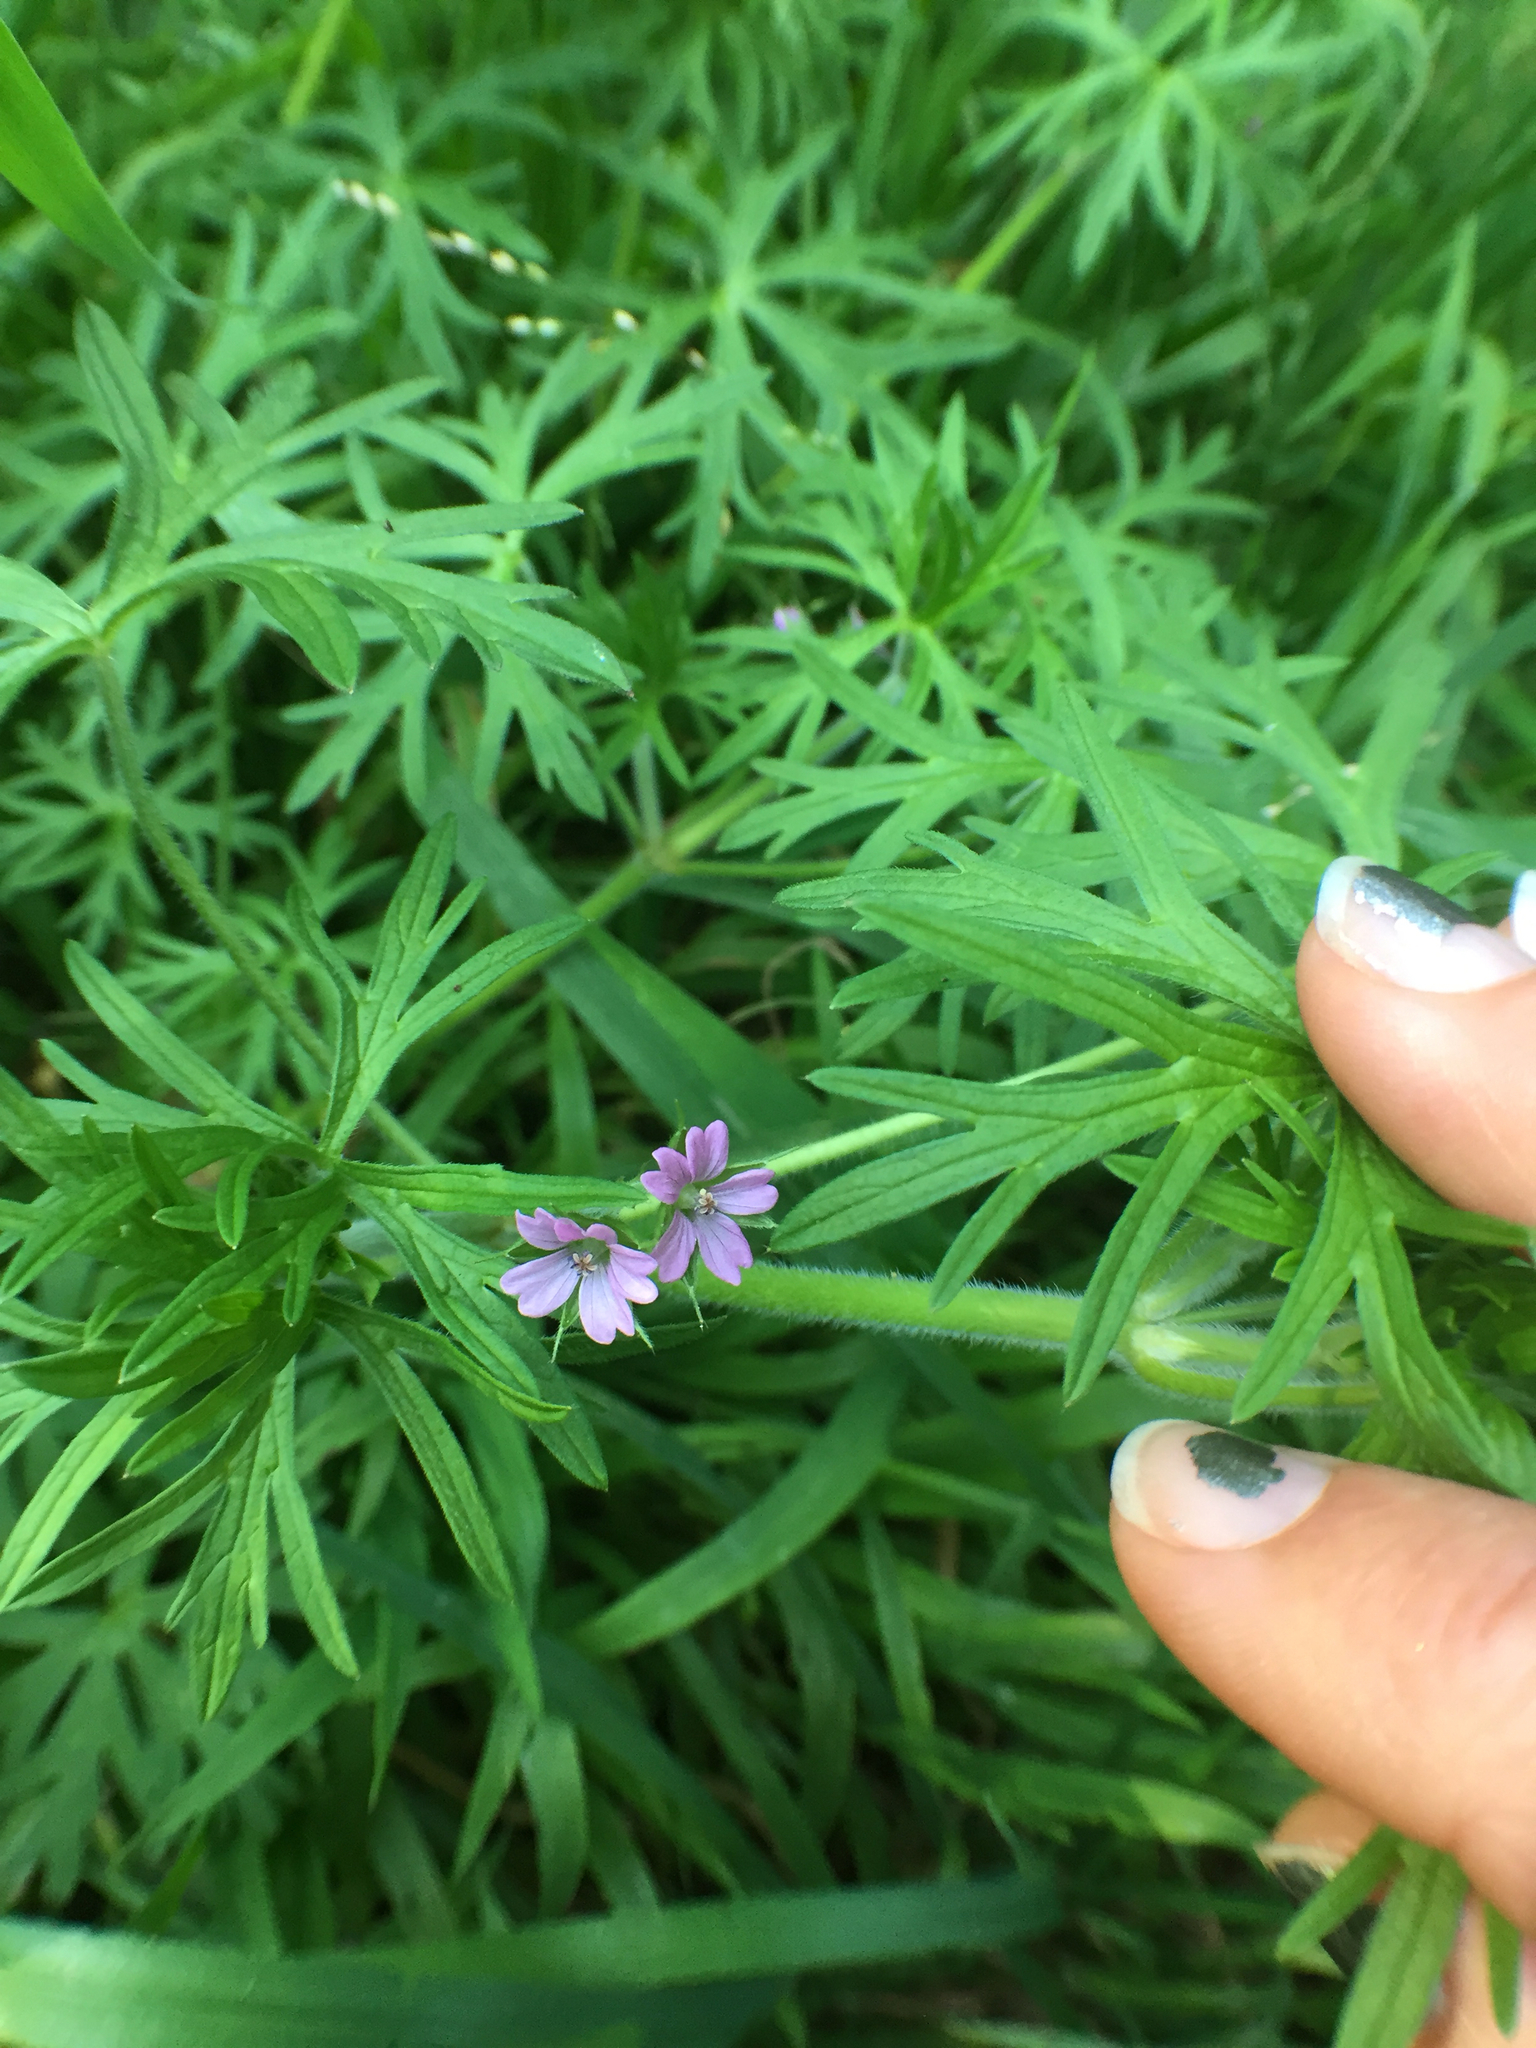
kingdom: Plantae
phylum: Tracheophyta
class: Magnoliopsida
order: Geraniales
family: Geraniaceae
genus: Geranium
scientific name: Geranium dissectum
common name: Cut-leaved crane's-bill
